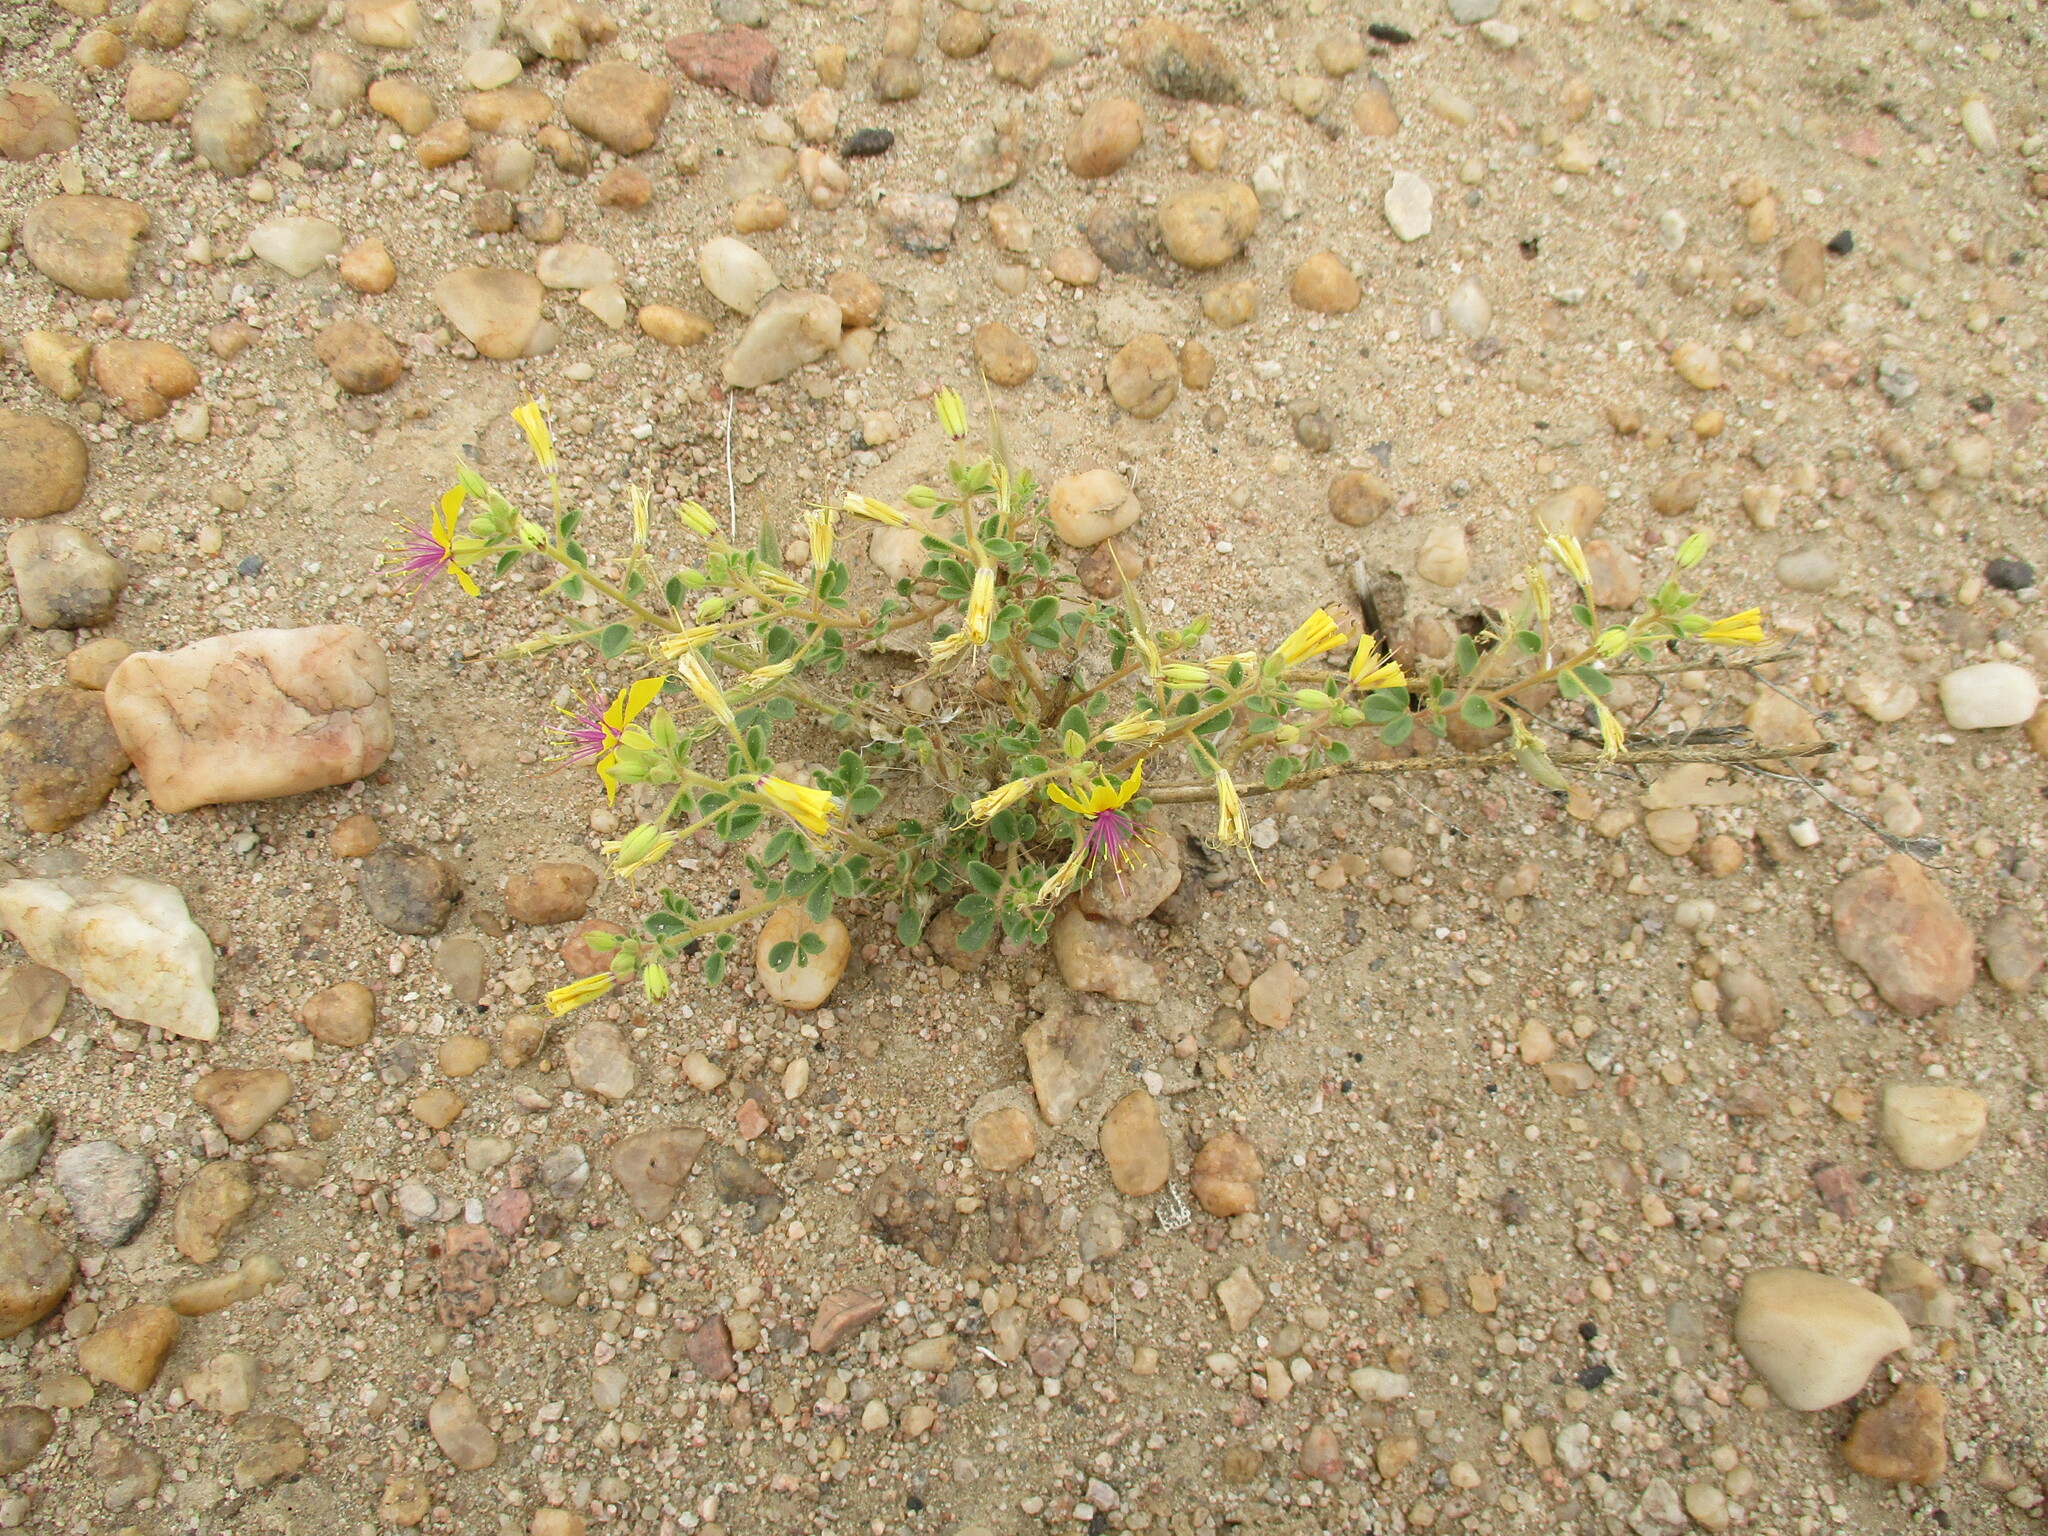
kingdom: Plantae
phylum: Tracheophyta
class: Magnoliopsida
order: Brassicales
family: Cleomaceae
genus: Cleome
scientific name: Cleome foliosa
